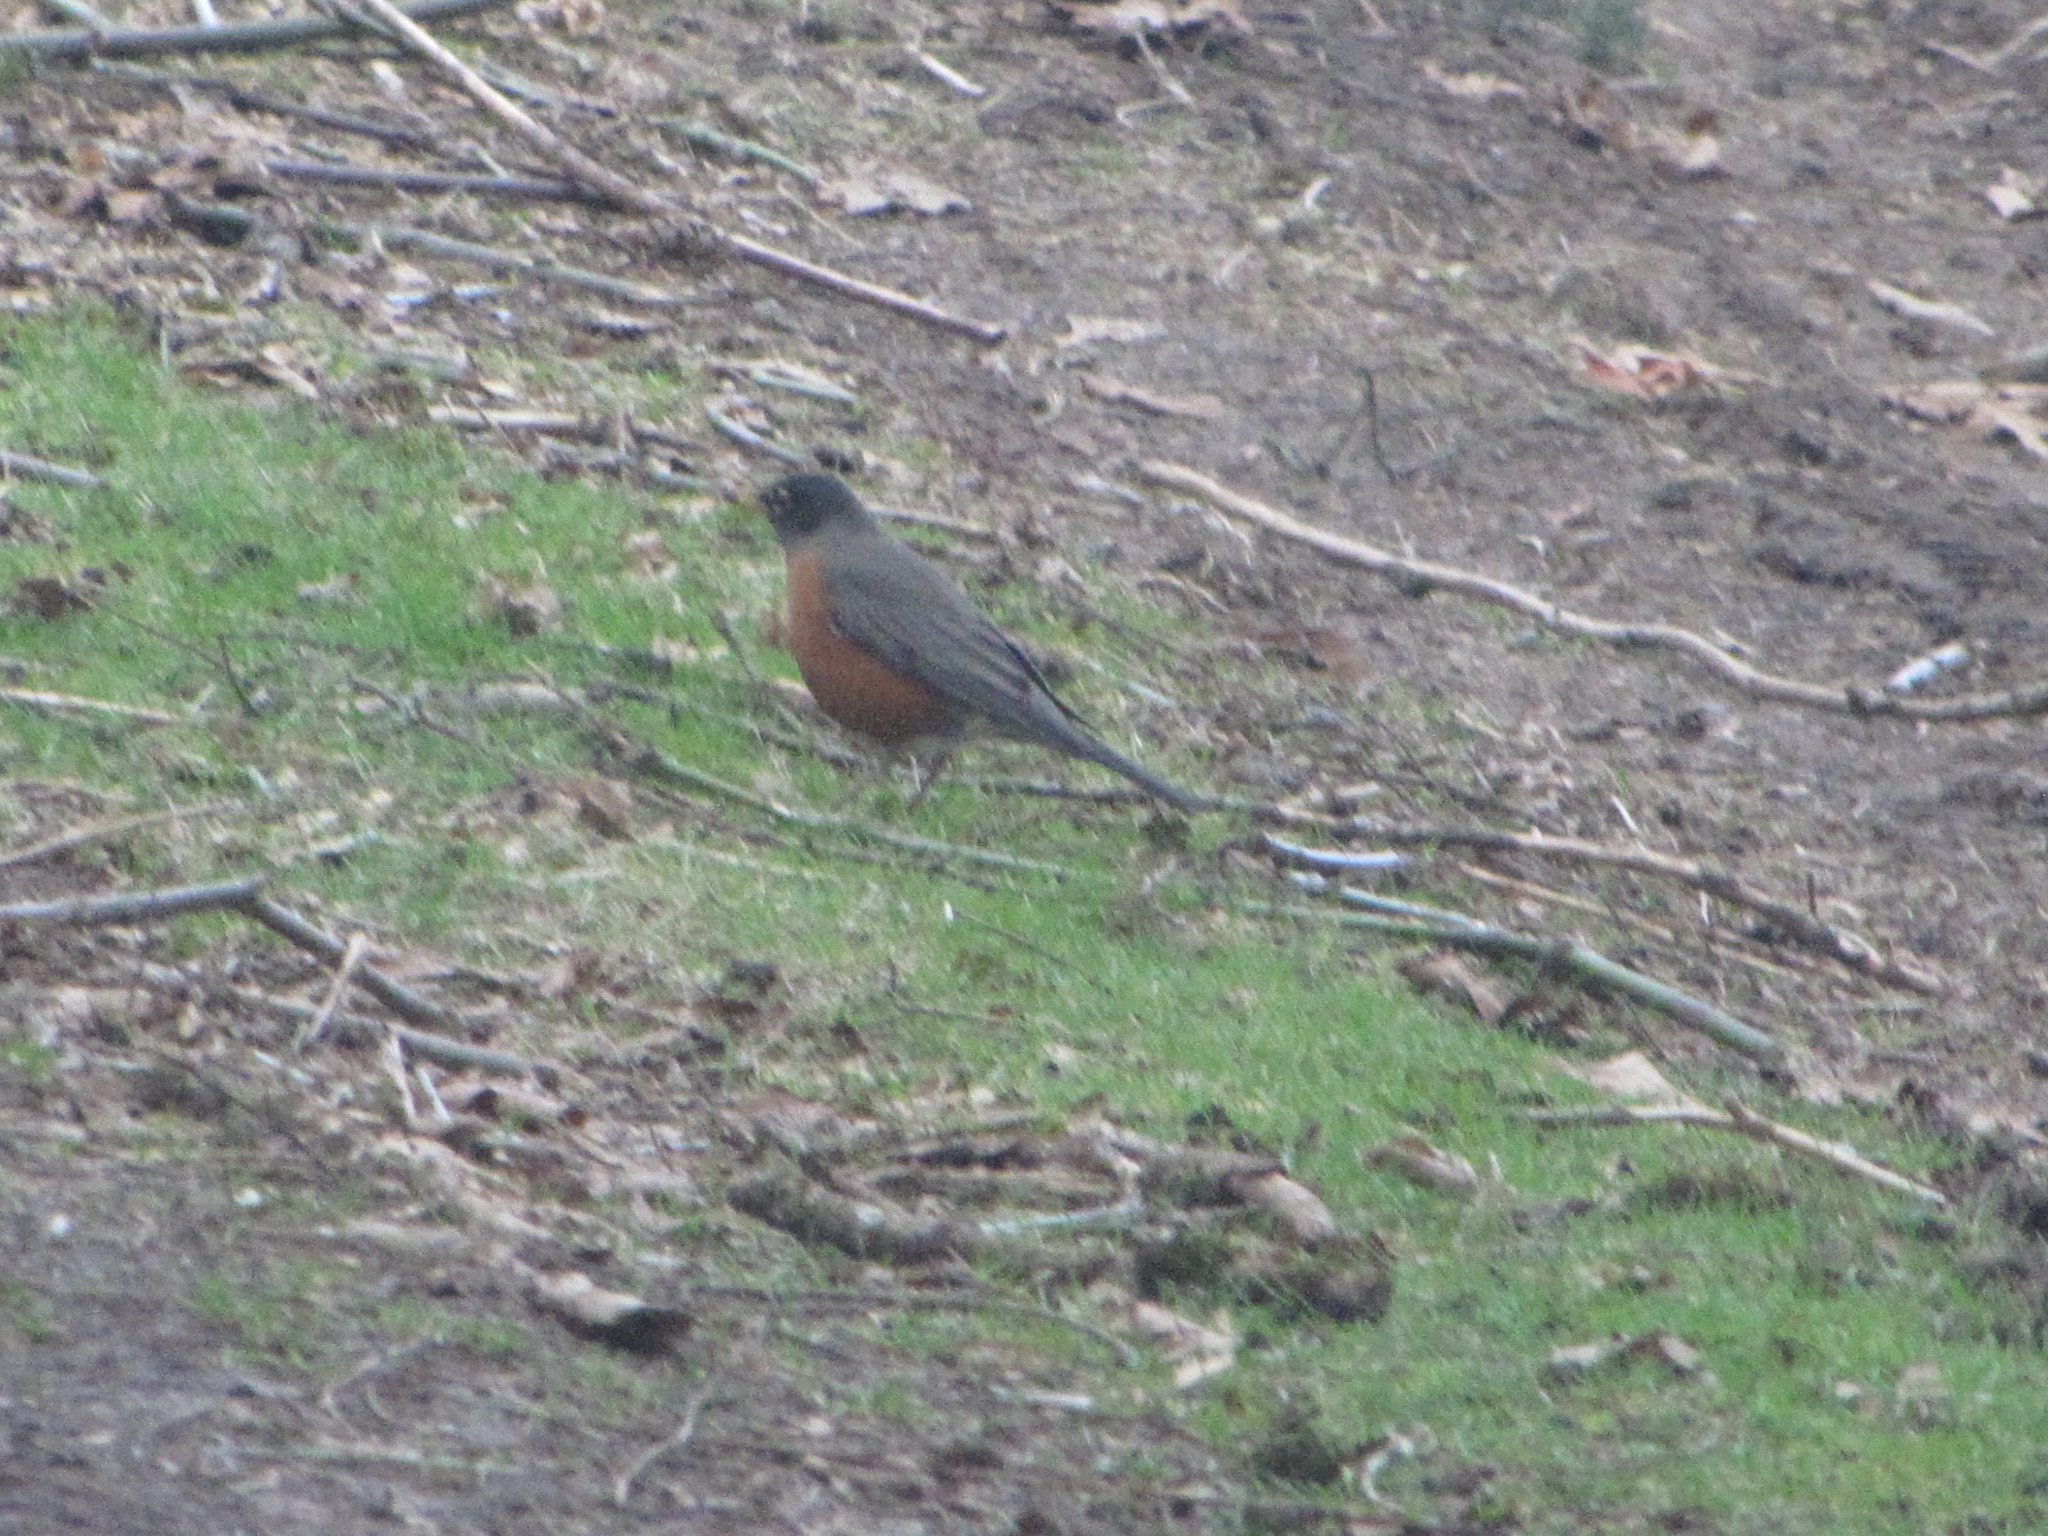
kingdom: Animalia
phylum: Chordata
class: Aves
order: Passeriformes
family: Turdidae
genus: Turdus
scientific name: Turdus migratorius
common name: American robin
